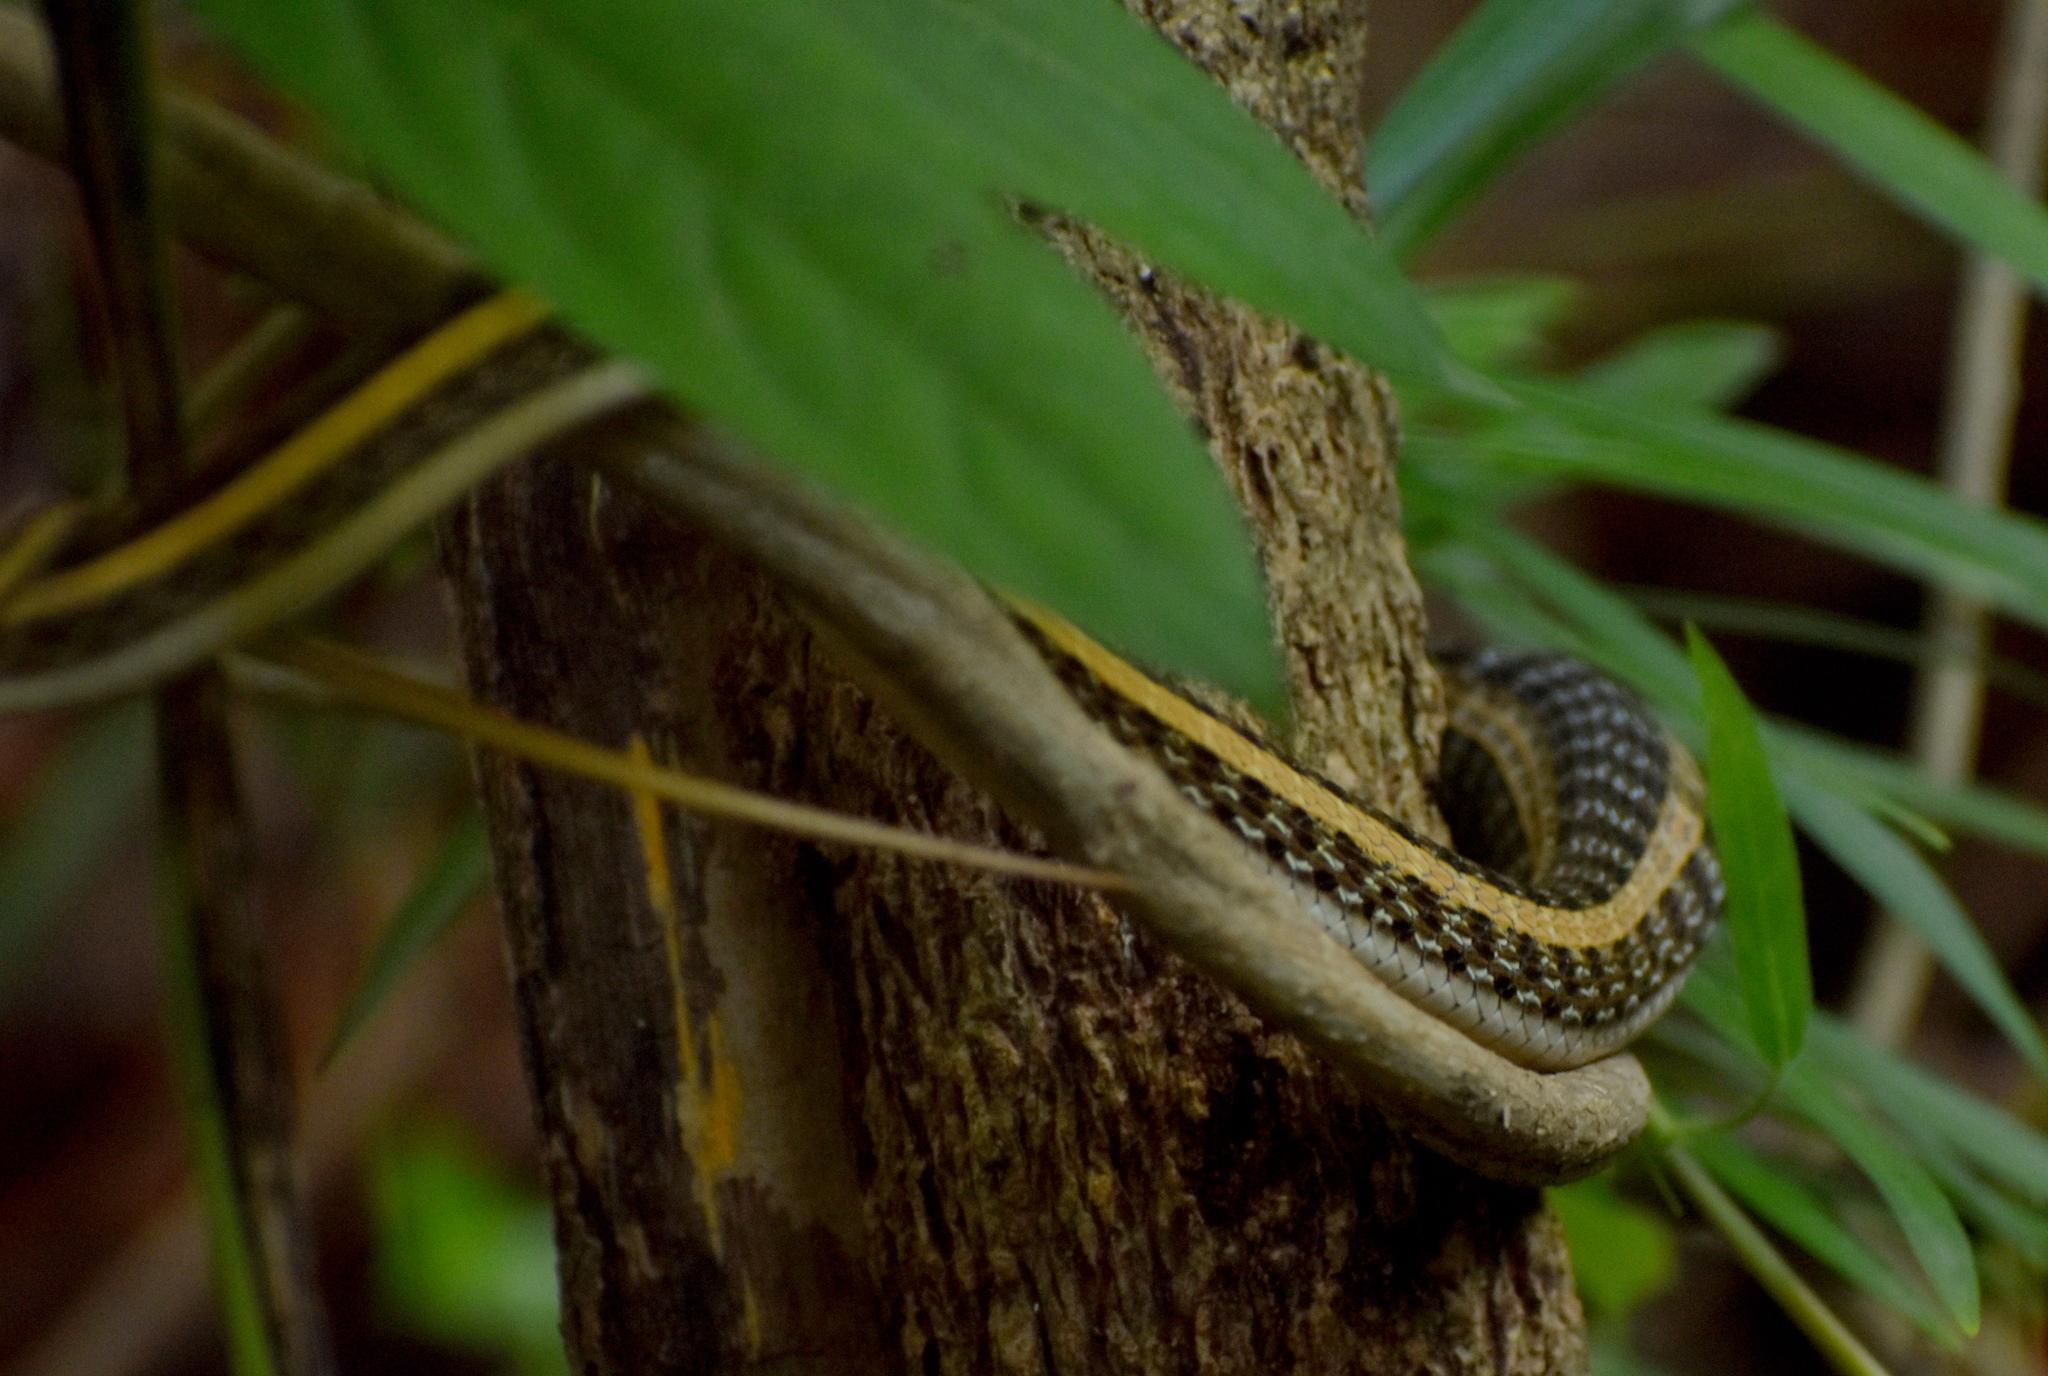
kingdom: Animalia
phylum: Chordata
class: Squamata
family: Colubridae
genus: Amphiesma
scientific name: Amphiesma stolatum
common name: Buff striped keelback
